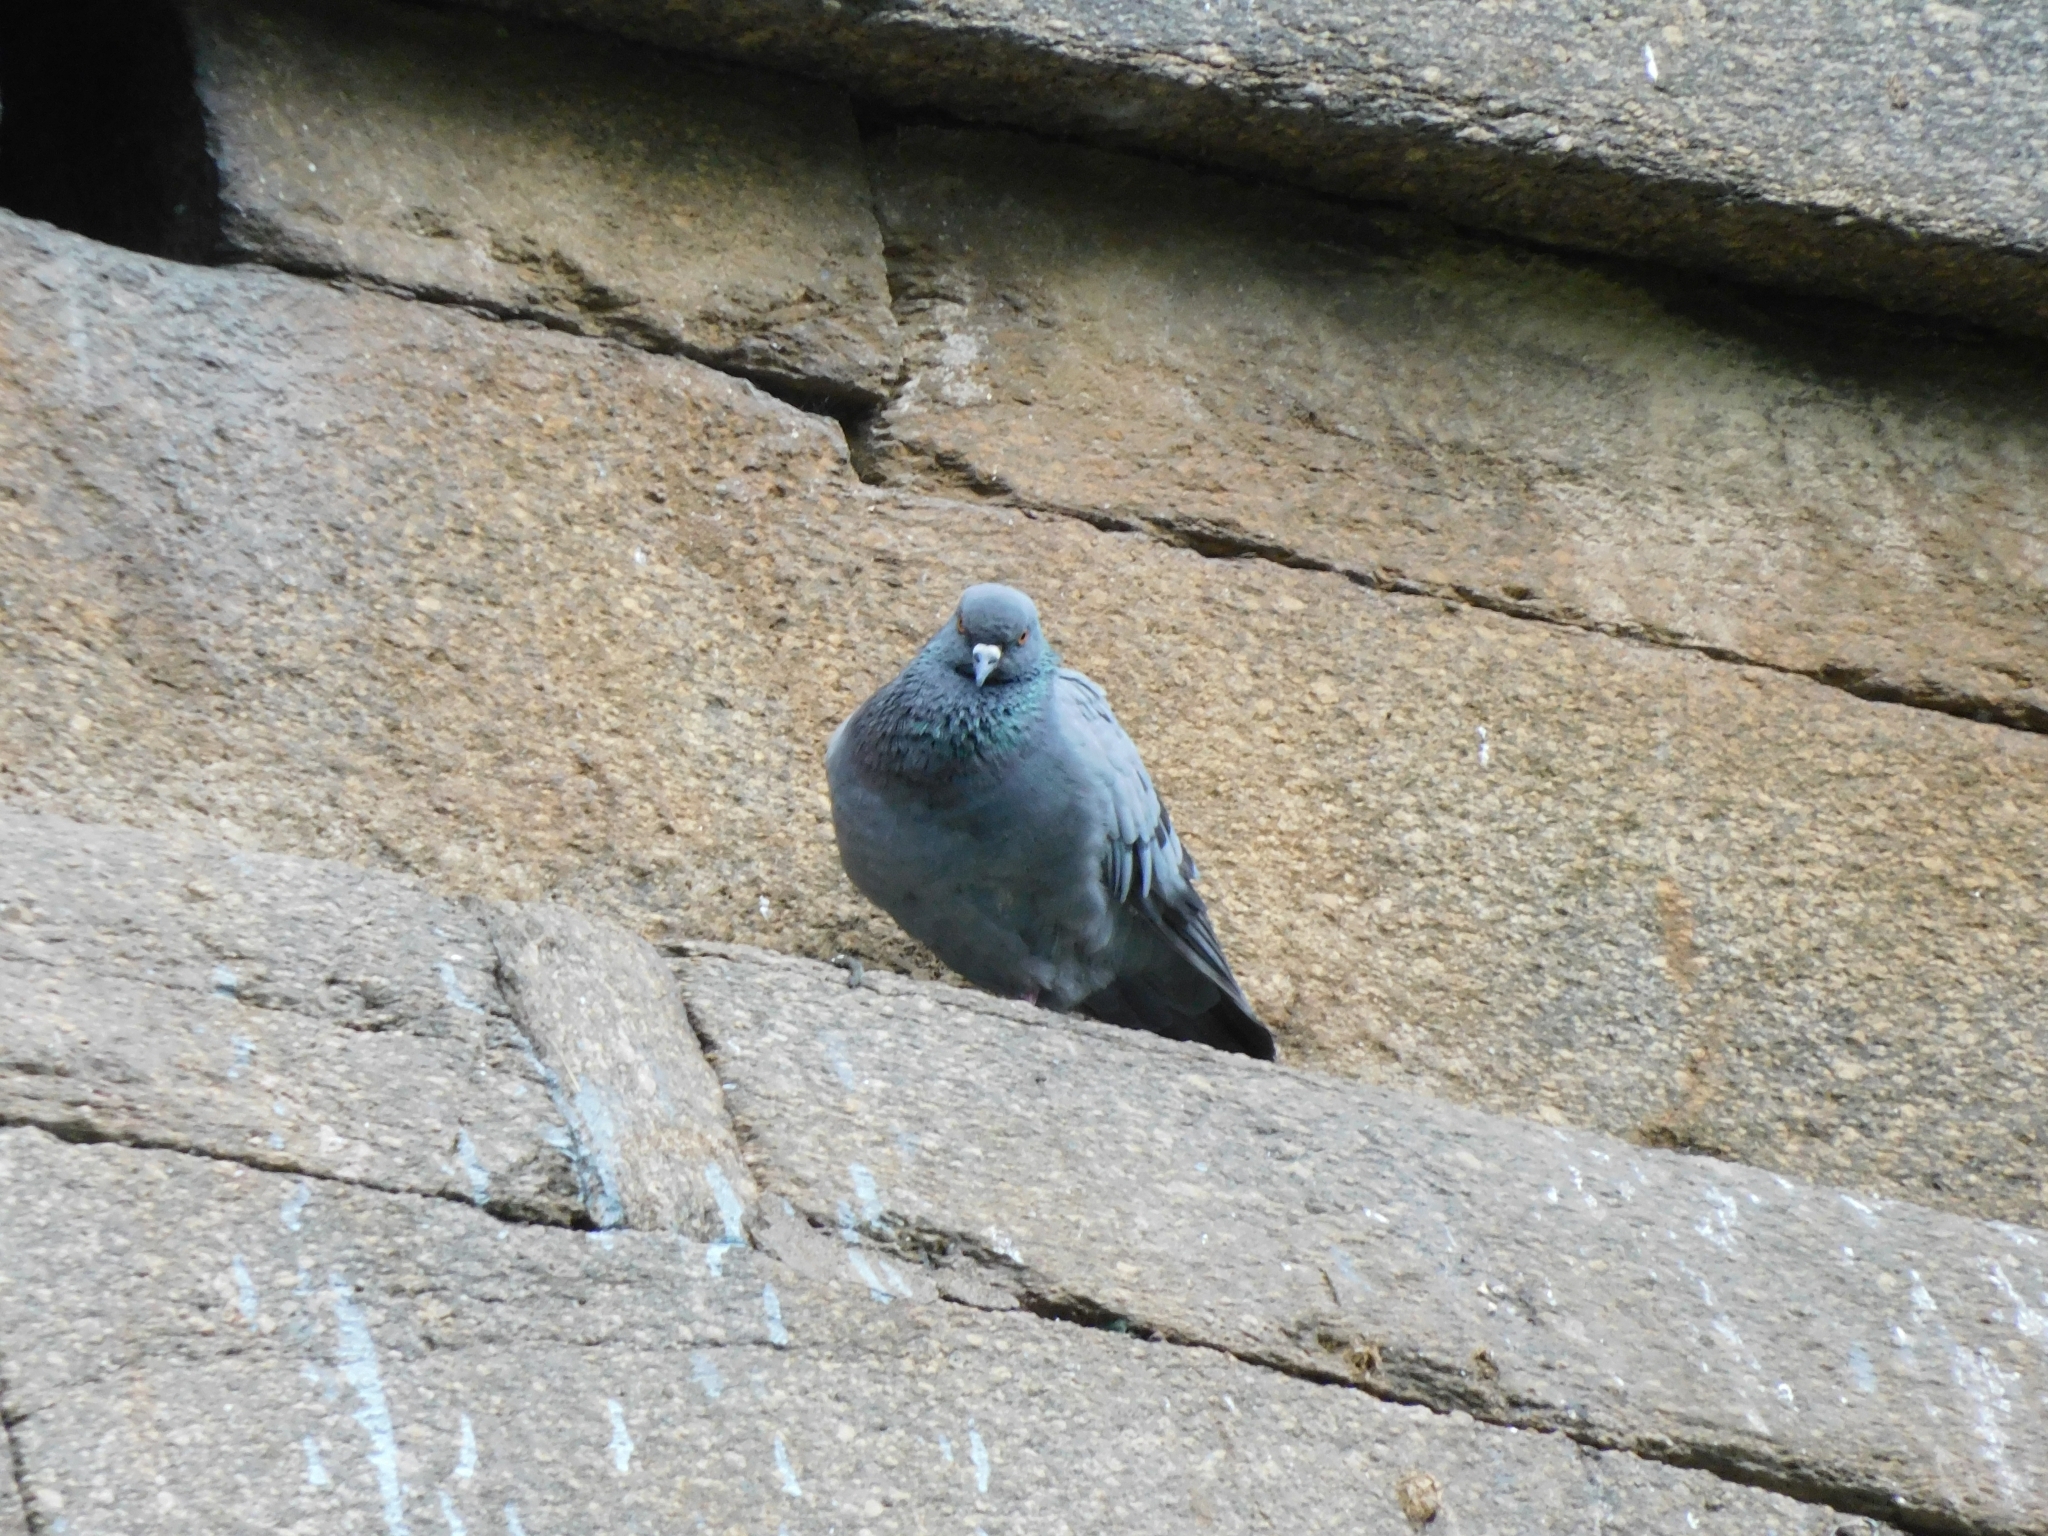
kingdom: Animalia
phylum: Chordata
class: Aves
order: Columbiformes
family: Columbidae
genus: Columba
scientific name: Columba livia
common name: Rock pigeon
